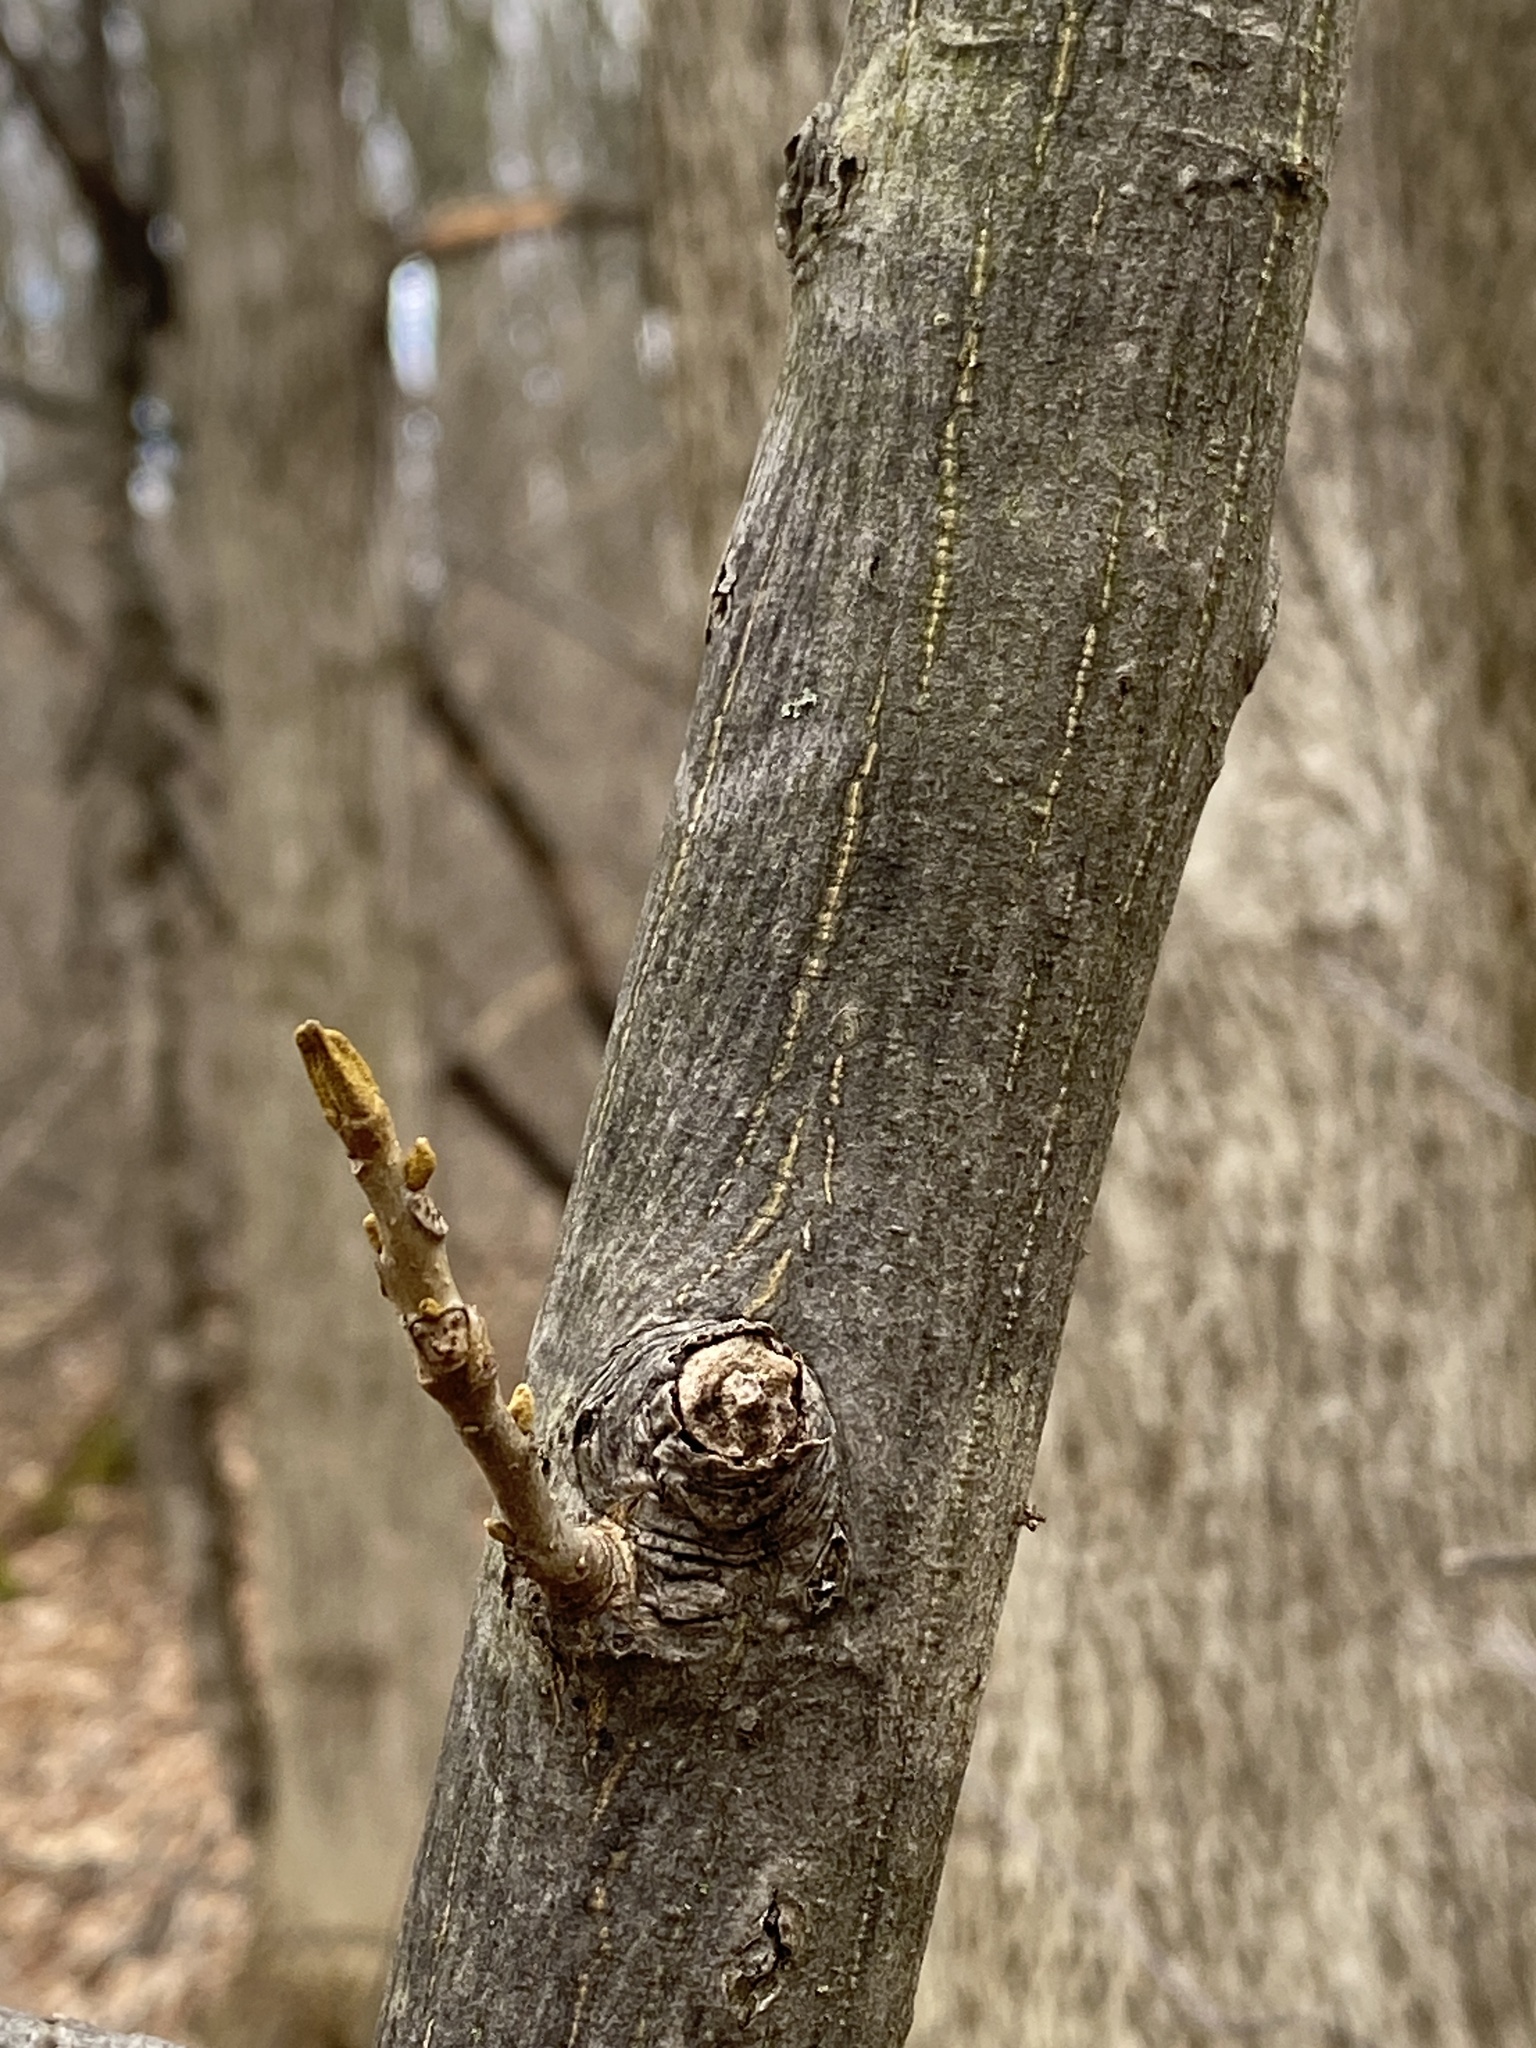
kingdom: Plantae
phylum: Tracheophyta
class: Magnoliopsida
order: Fagales
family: Juglandaceae
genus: Carya
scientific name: Carya cordiformis
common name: Bitternut hickory
